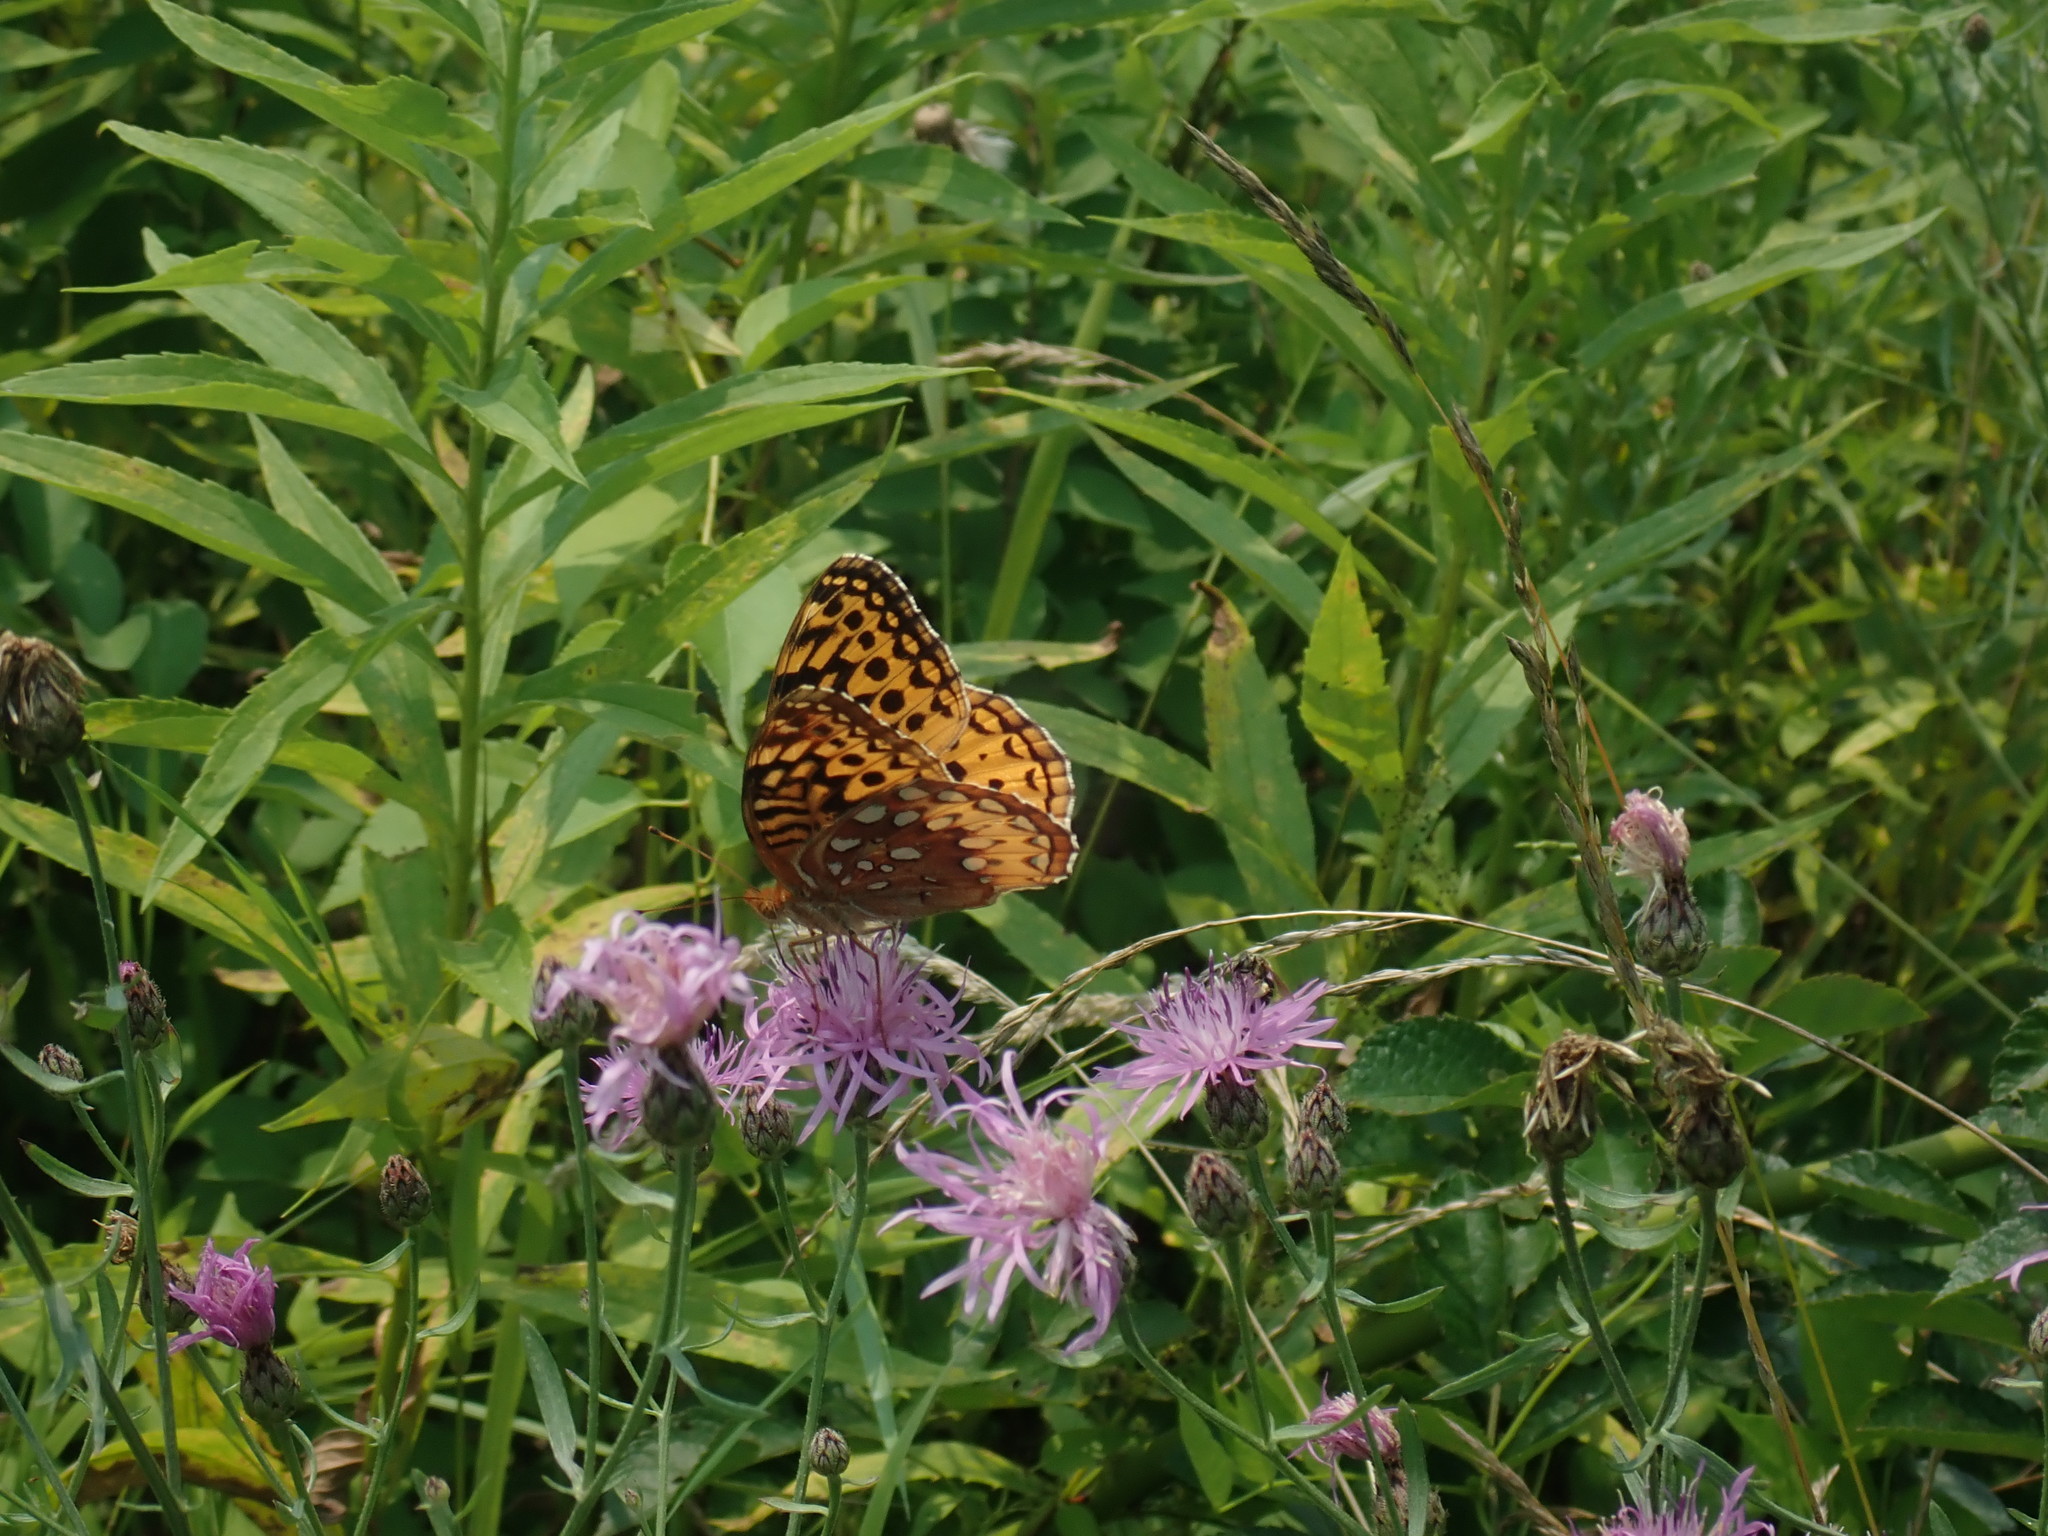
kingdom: Animalia
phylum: Arthropoda
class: Insecta
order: Lepidoptera
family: Nymphalidae
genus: Speyeria
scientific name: Speyeria cybele
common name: Great spangled fritillary
